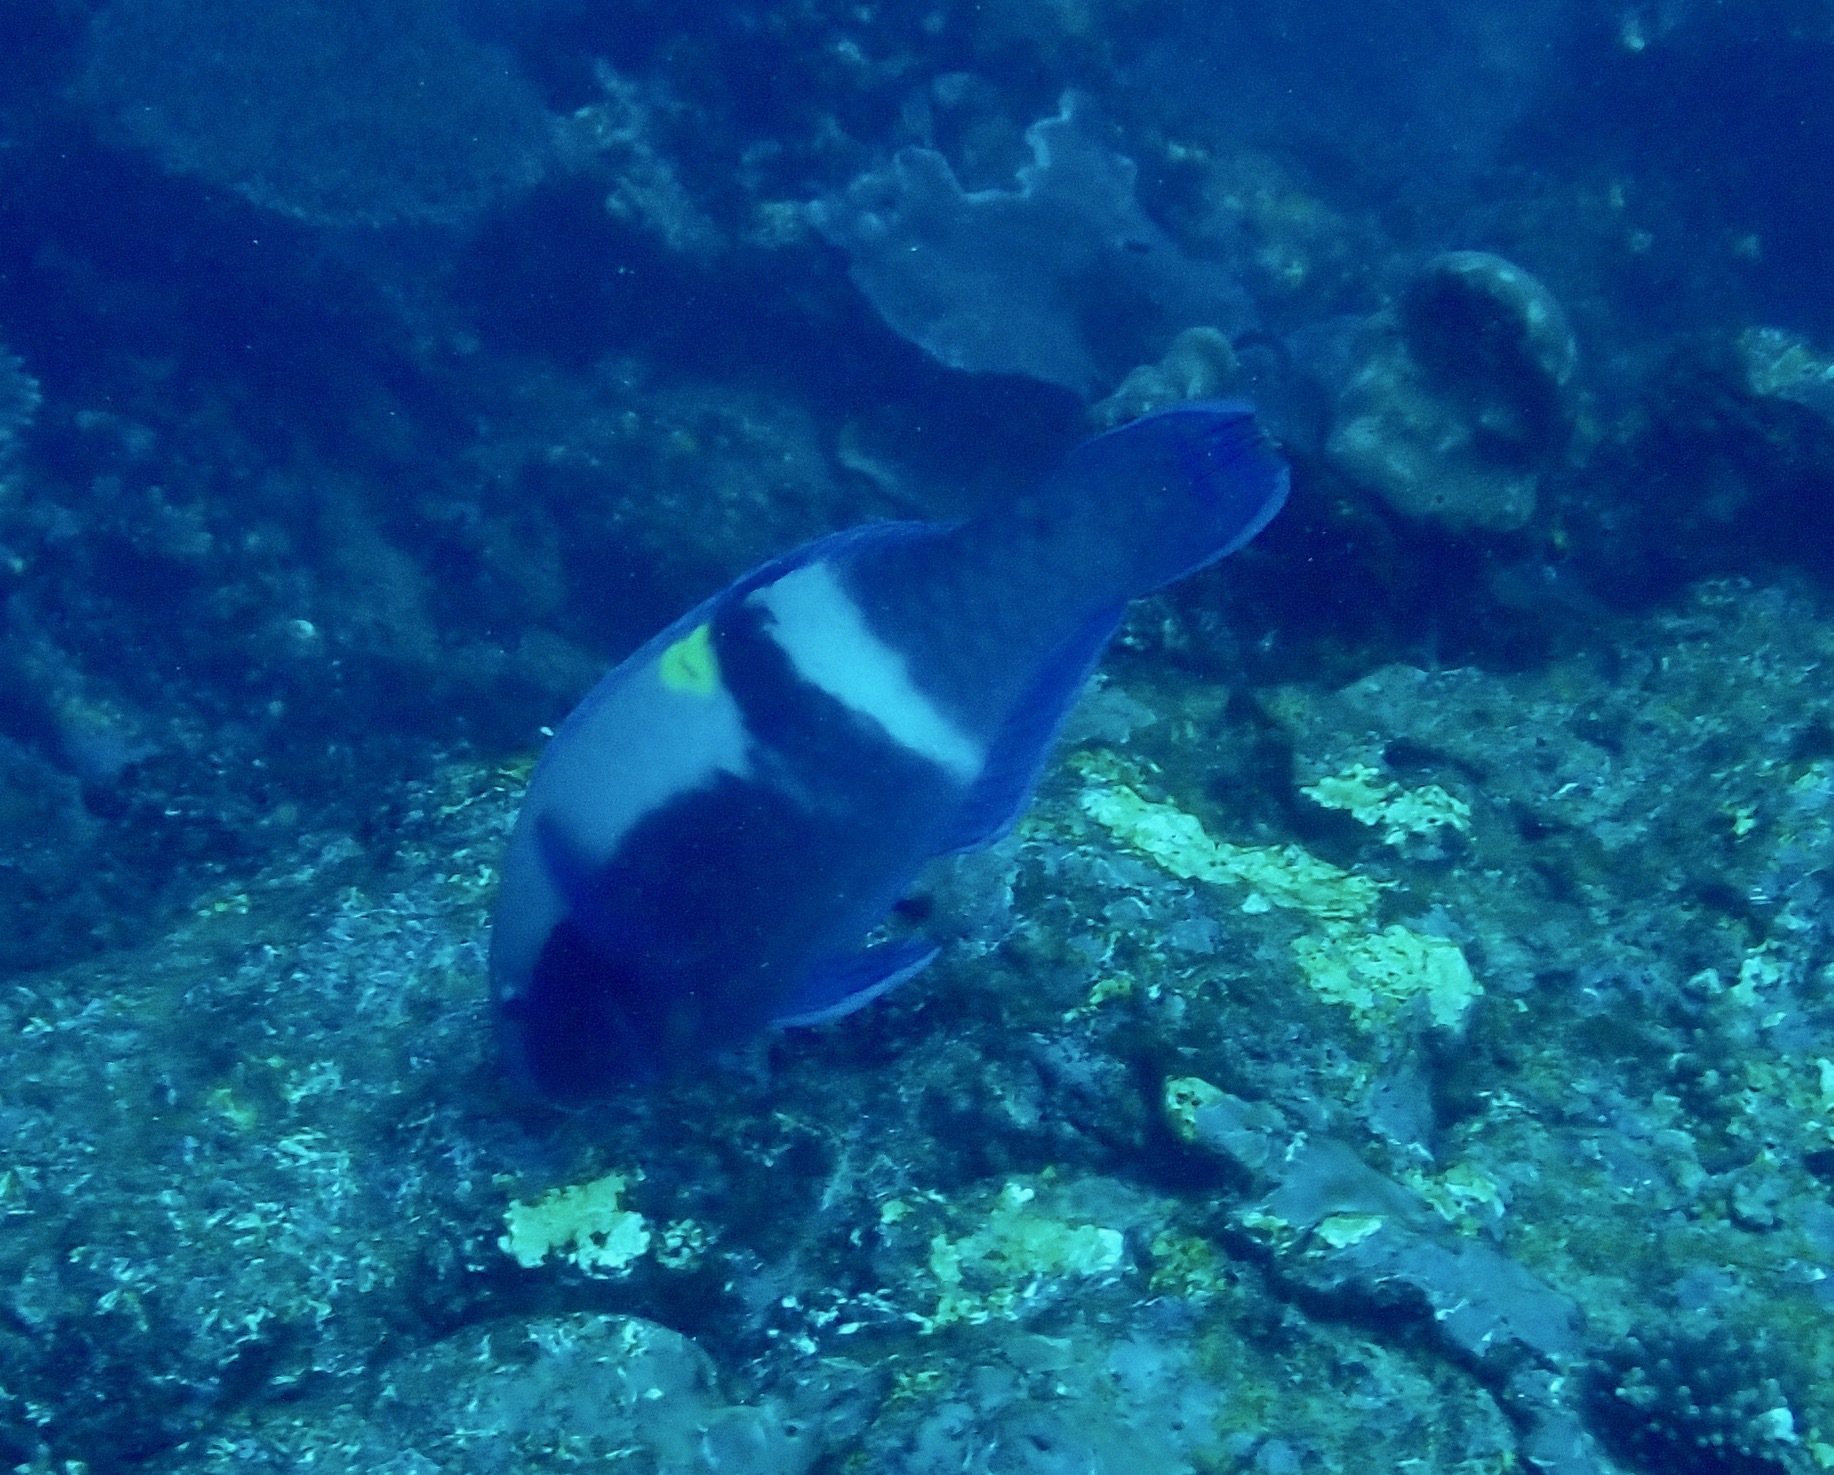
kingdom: Animalia
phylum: Chordata
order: Perciformes
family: Scaridae
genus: Scarus
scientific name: Scarus schlegeli
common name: Schlegel's parrotfish
